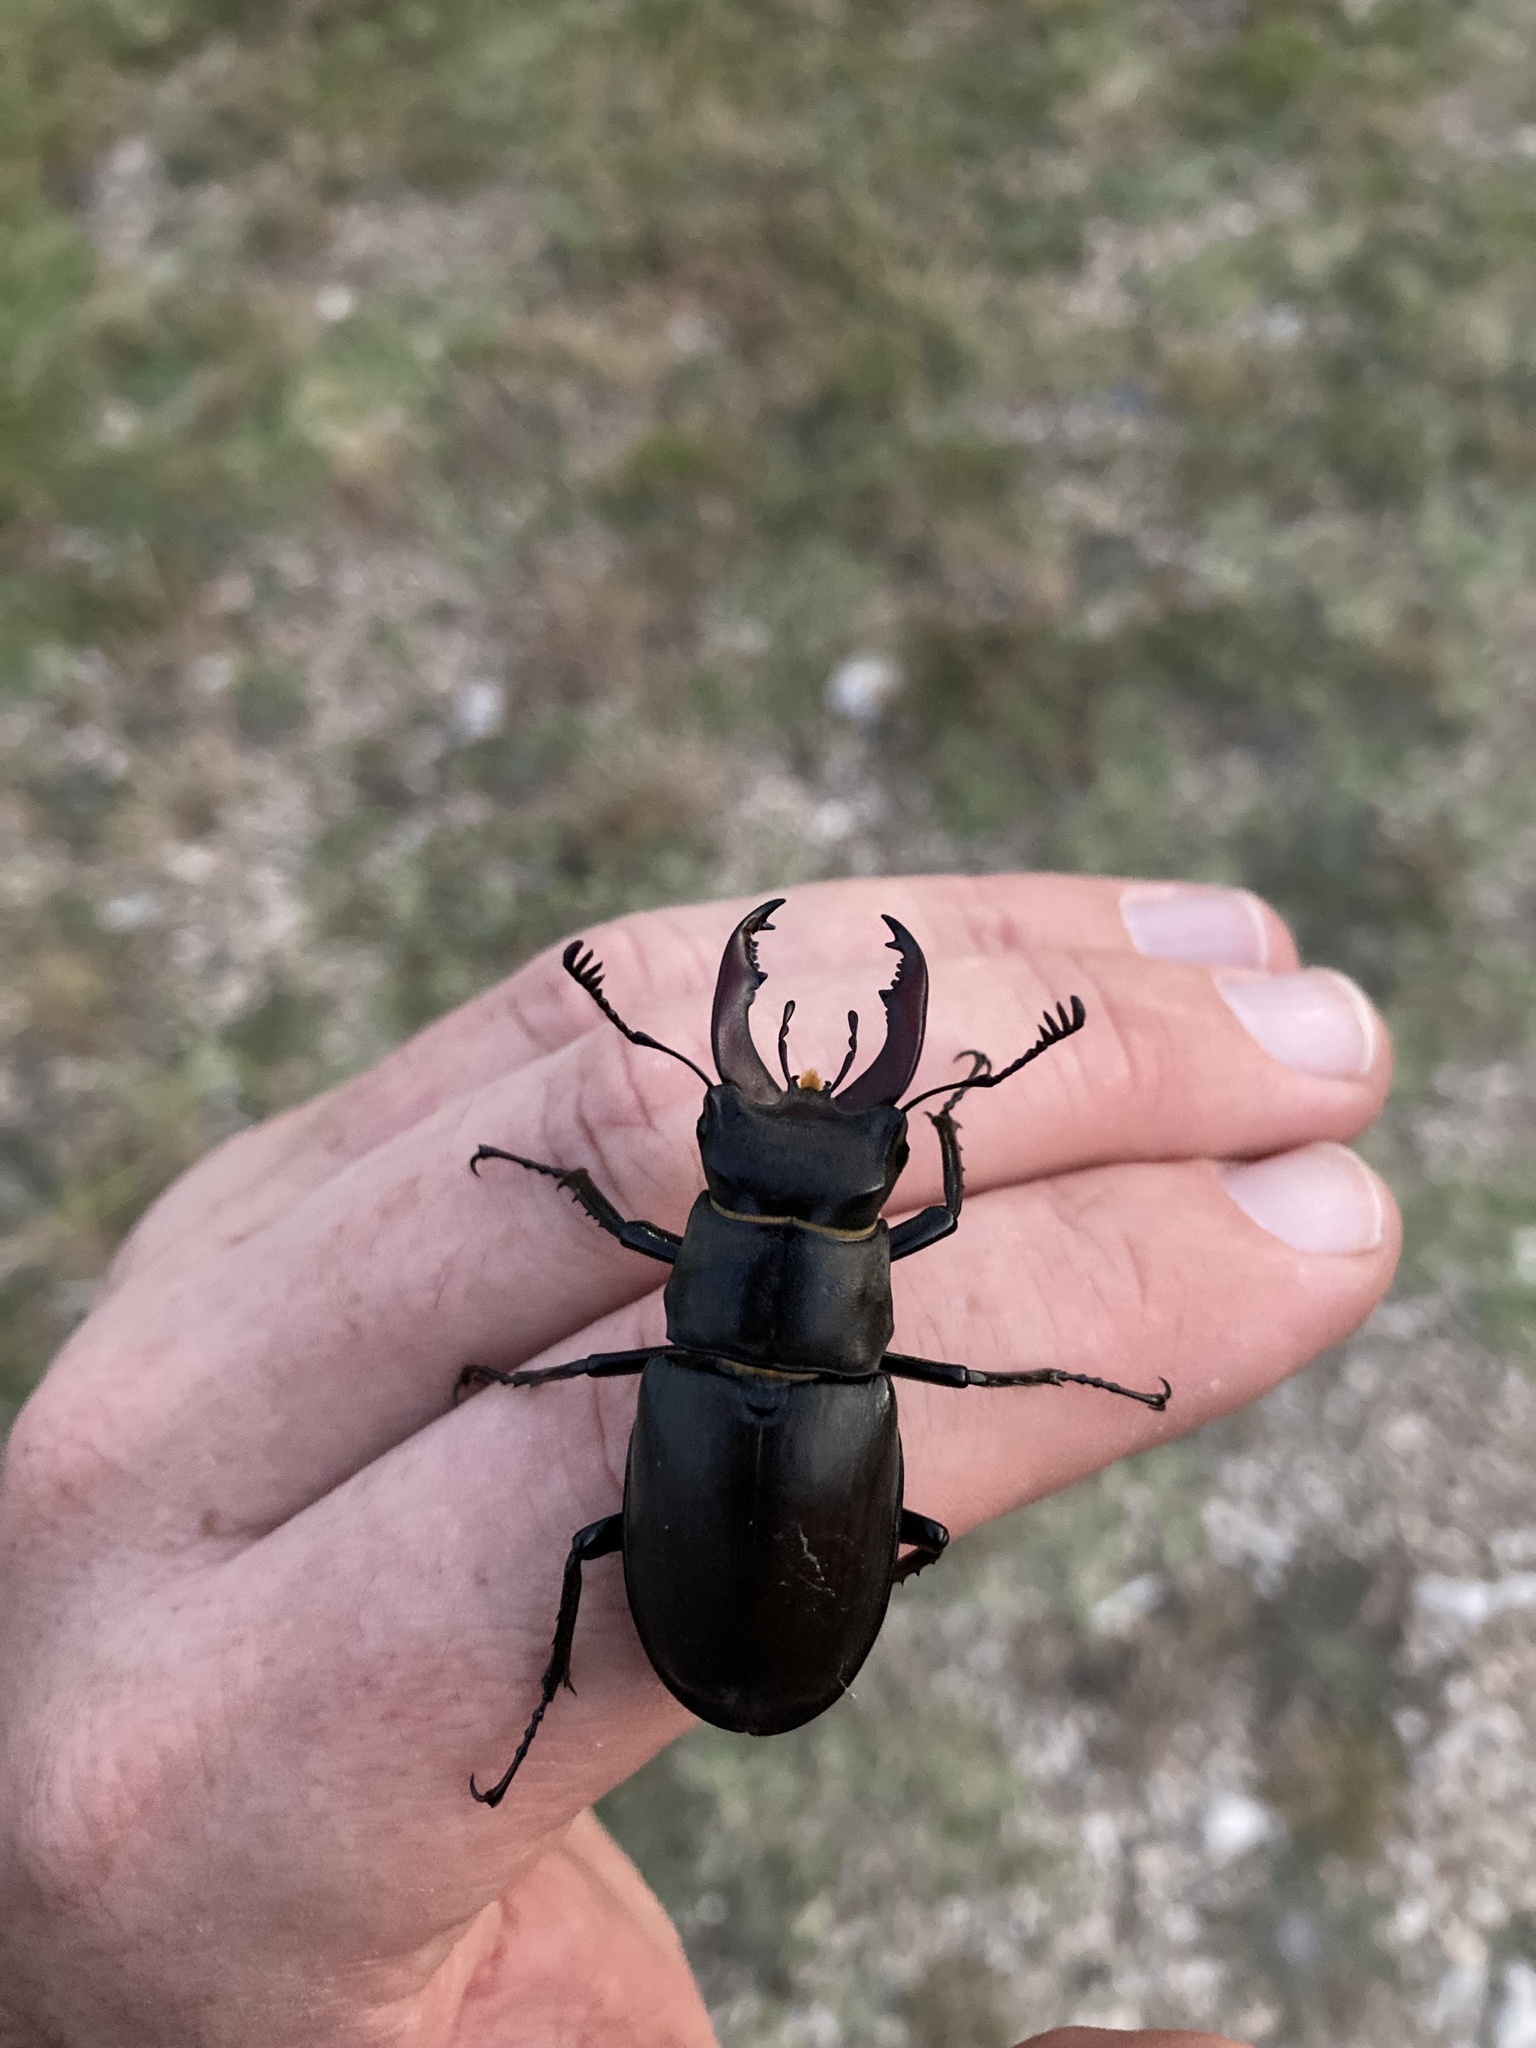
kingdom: Animalia
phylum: Arthropoda
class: Insecta
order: Coleoptera
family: Lucanidae
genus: Lucanus
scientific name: Lucanus cervus
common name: Stag beetle
